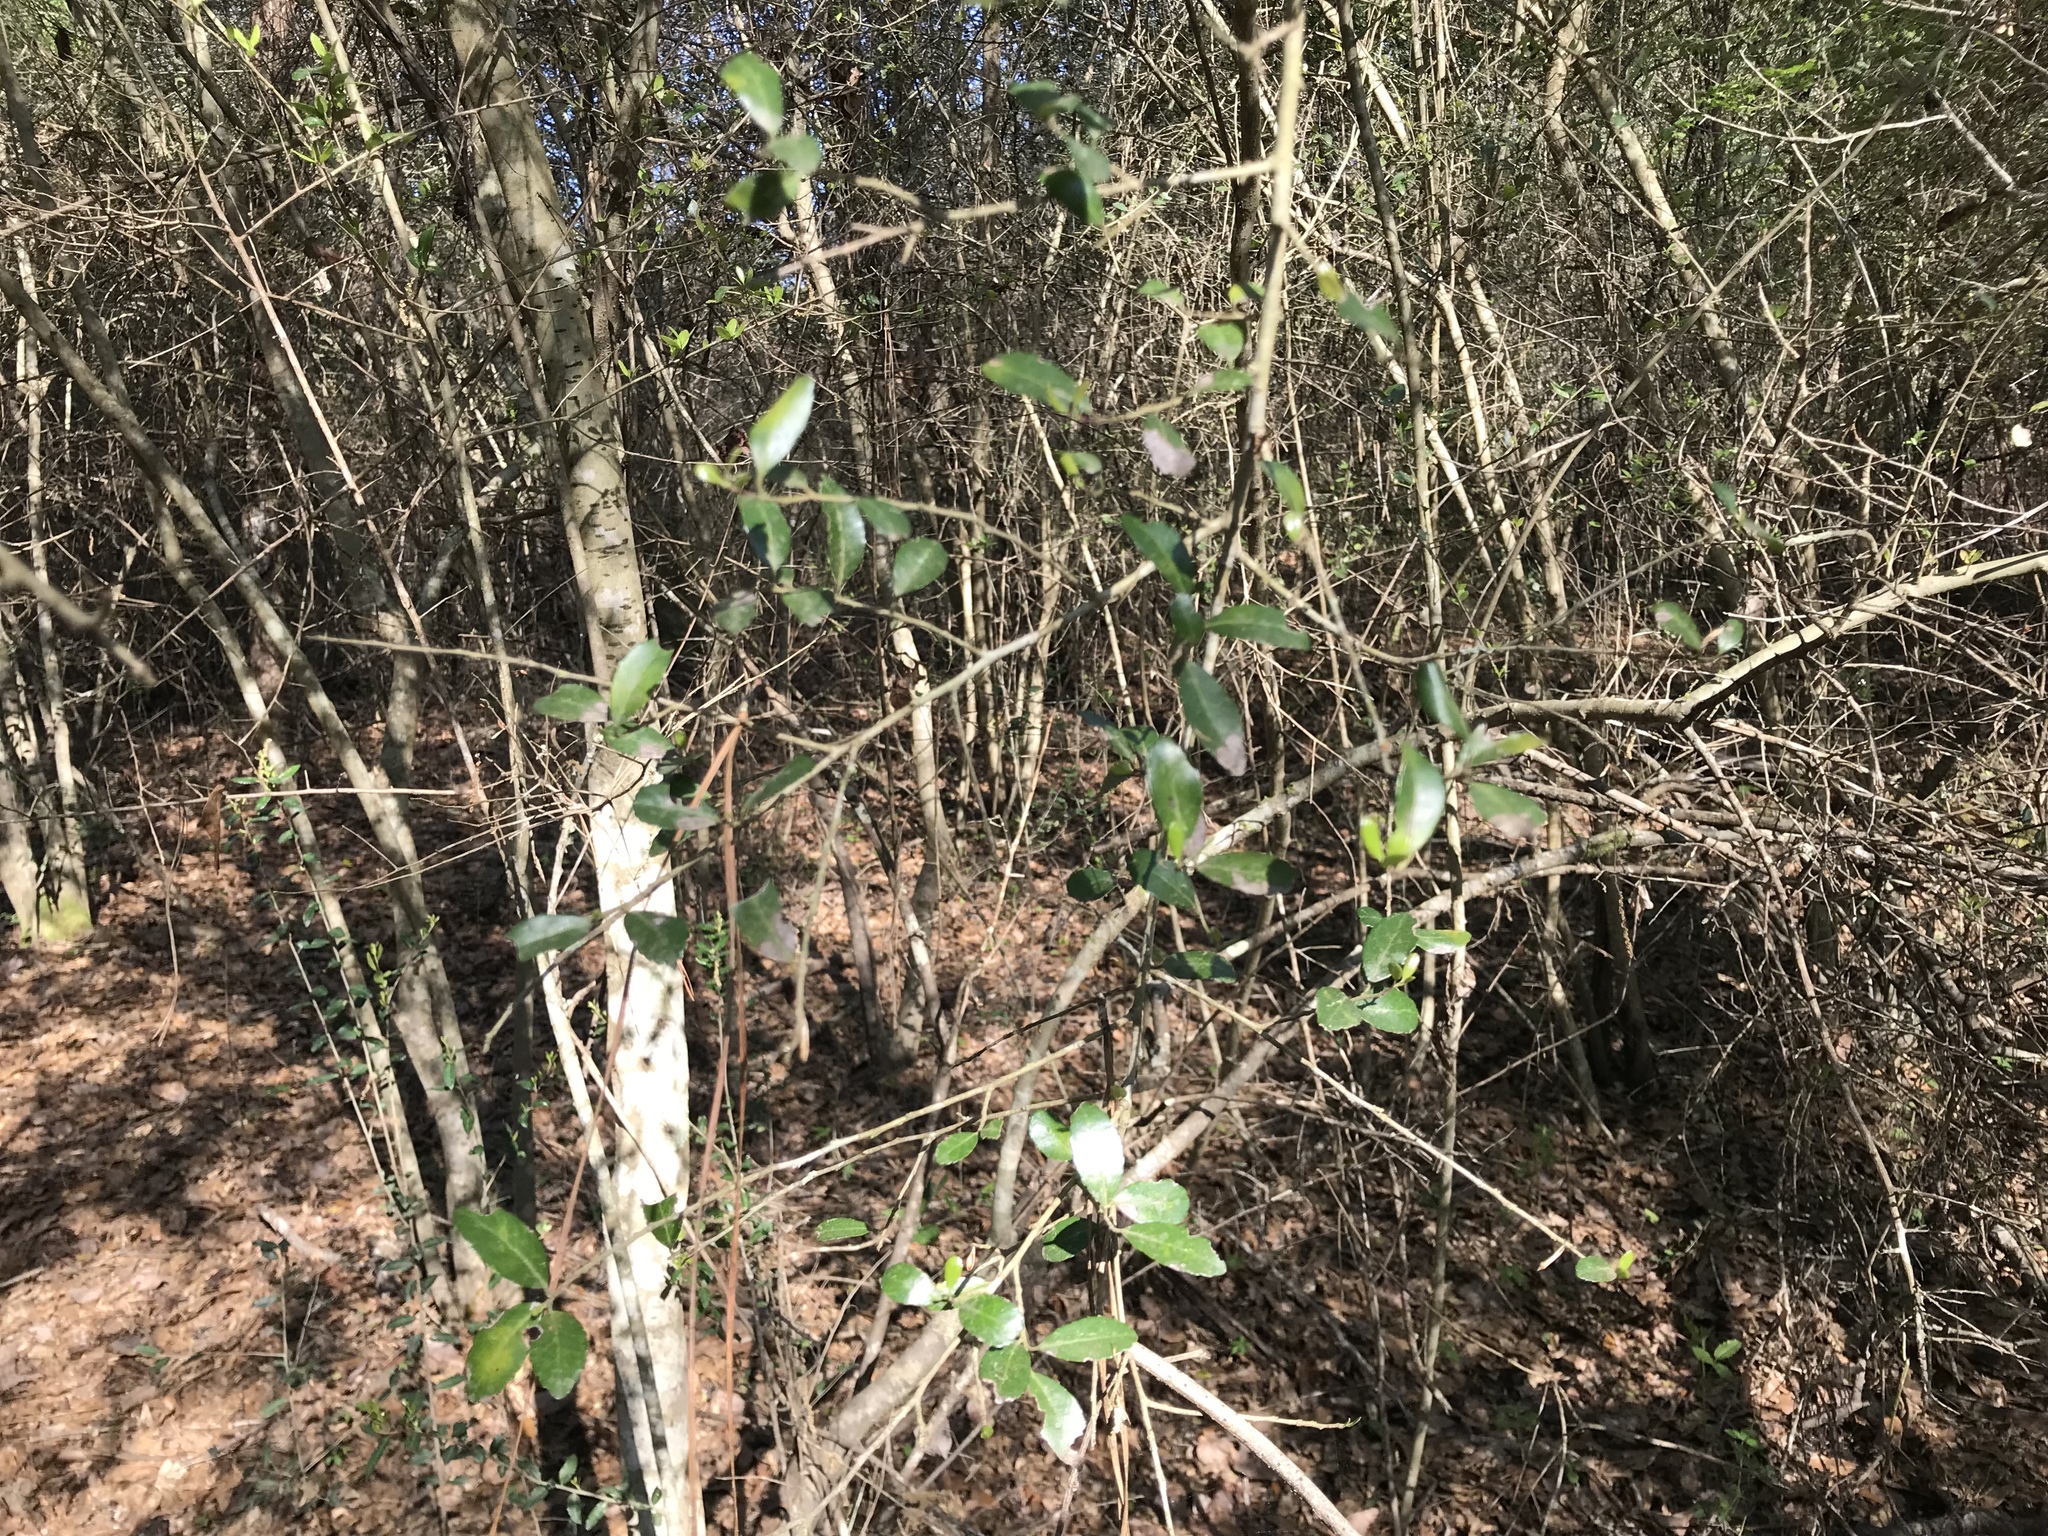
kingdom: Plantae
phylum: Tracheophyta
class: Magnoliopsida
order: Aquifoliales
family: Aquifoliaceae
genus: Ilex
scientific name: Ilex vomitoria
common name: Yaupon holly
